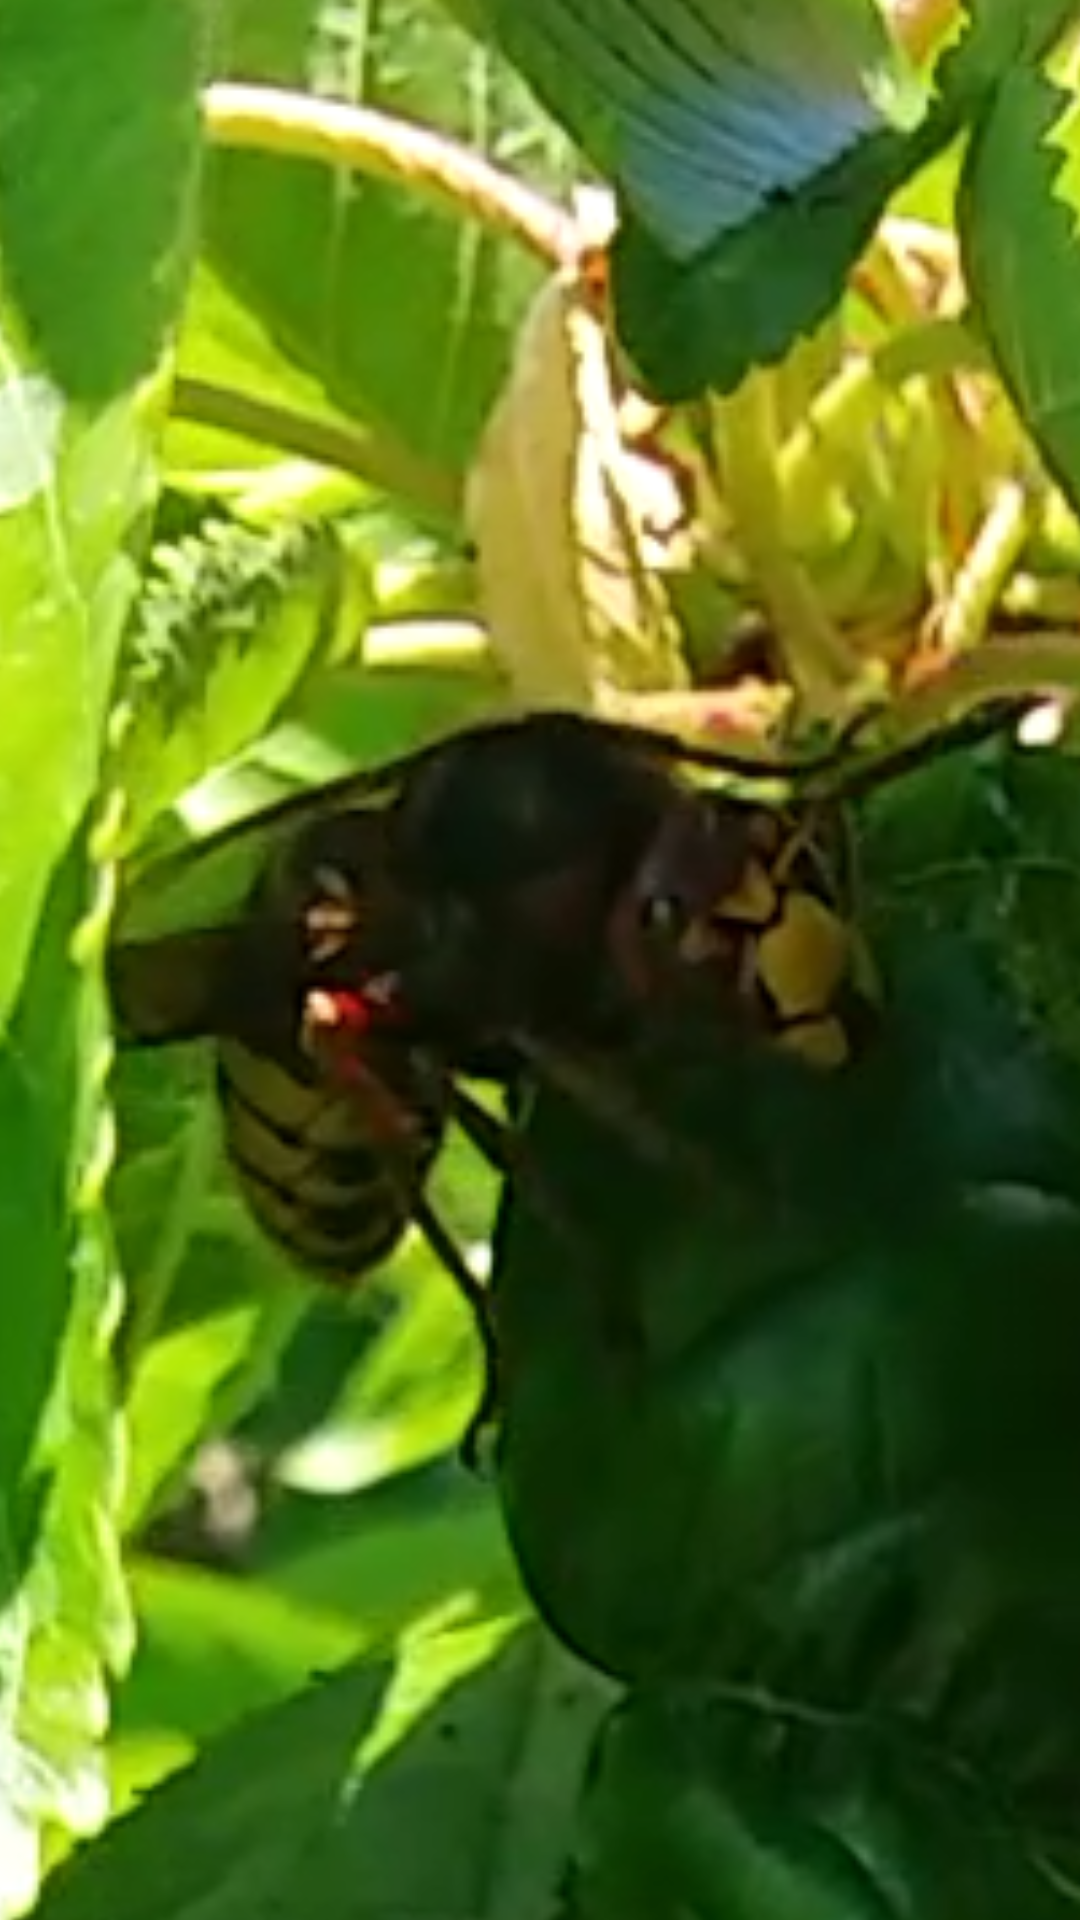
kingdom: Animalia
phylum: Arthropoda
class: Insecta
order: Hymenoptera
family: Vespidae
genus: Vespa
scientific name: Vespa crabro
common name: Hornet
